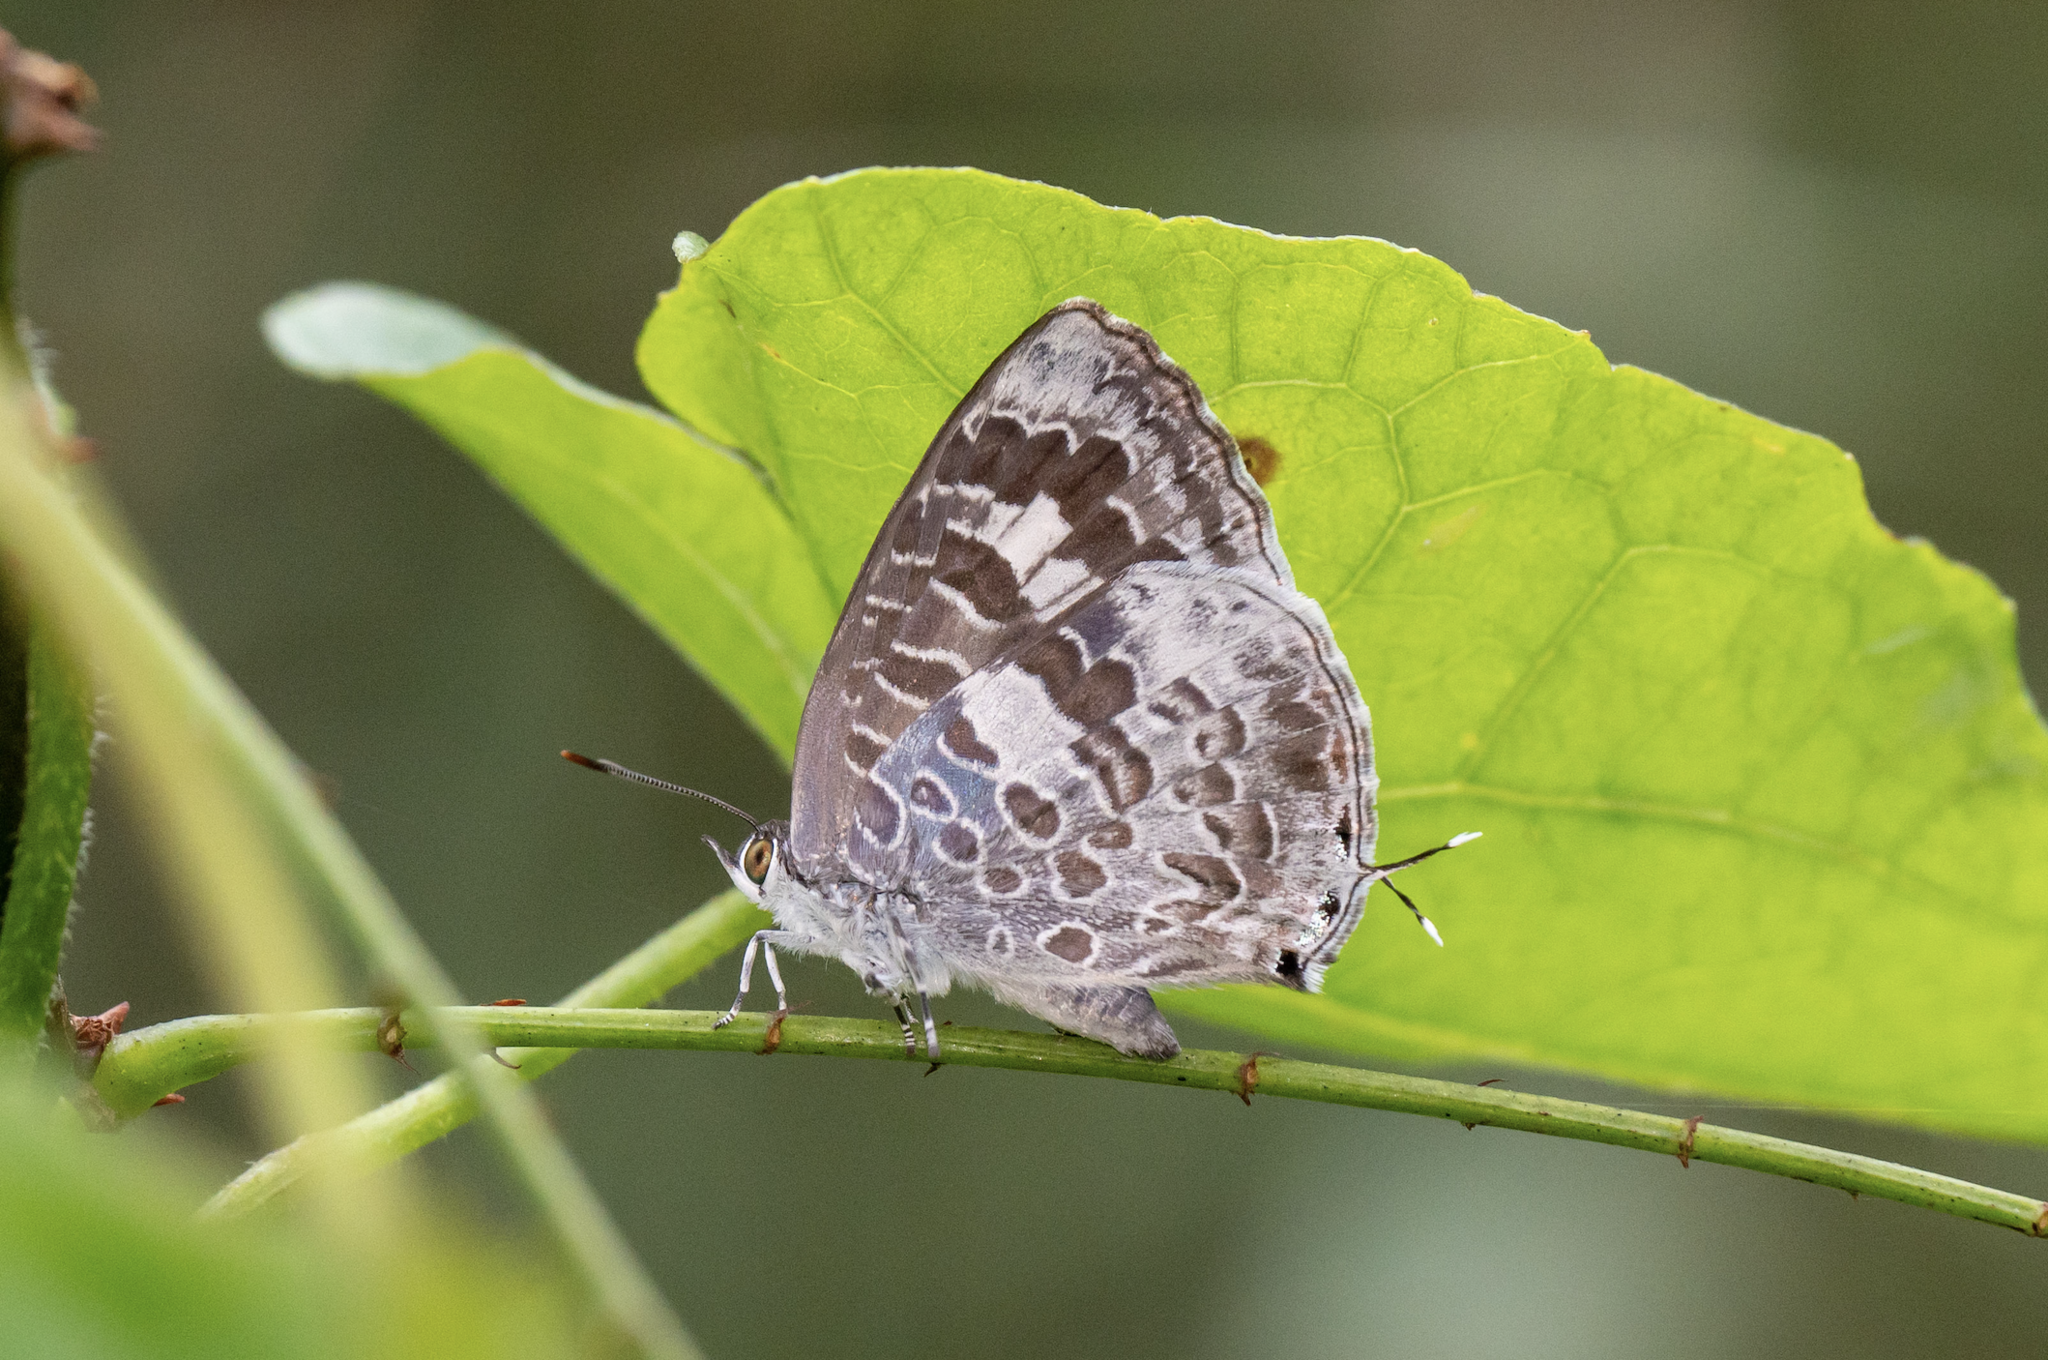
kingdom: Animalia
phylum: Arthropoda
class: Insecta
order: Lepidoptera
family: Lycaenidae
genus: Arhopala
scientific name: Arhopala birmana
